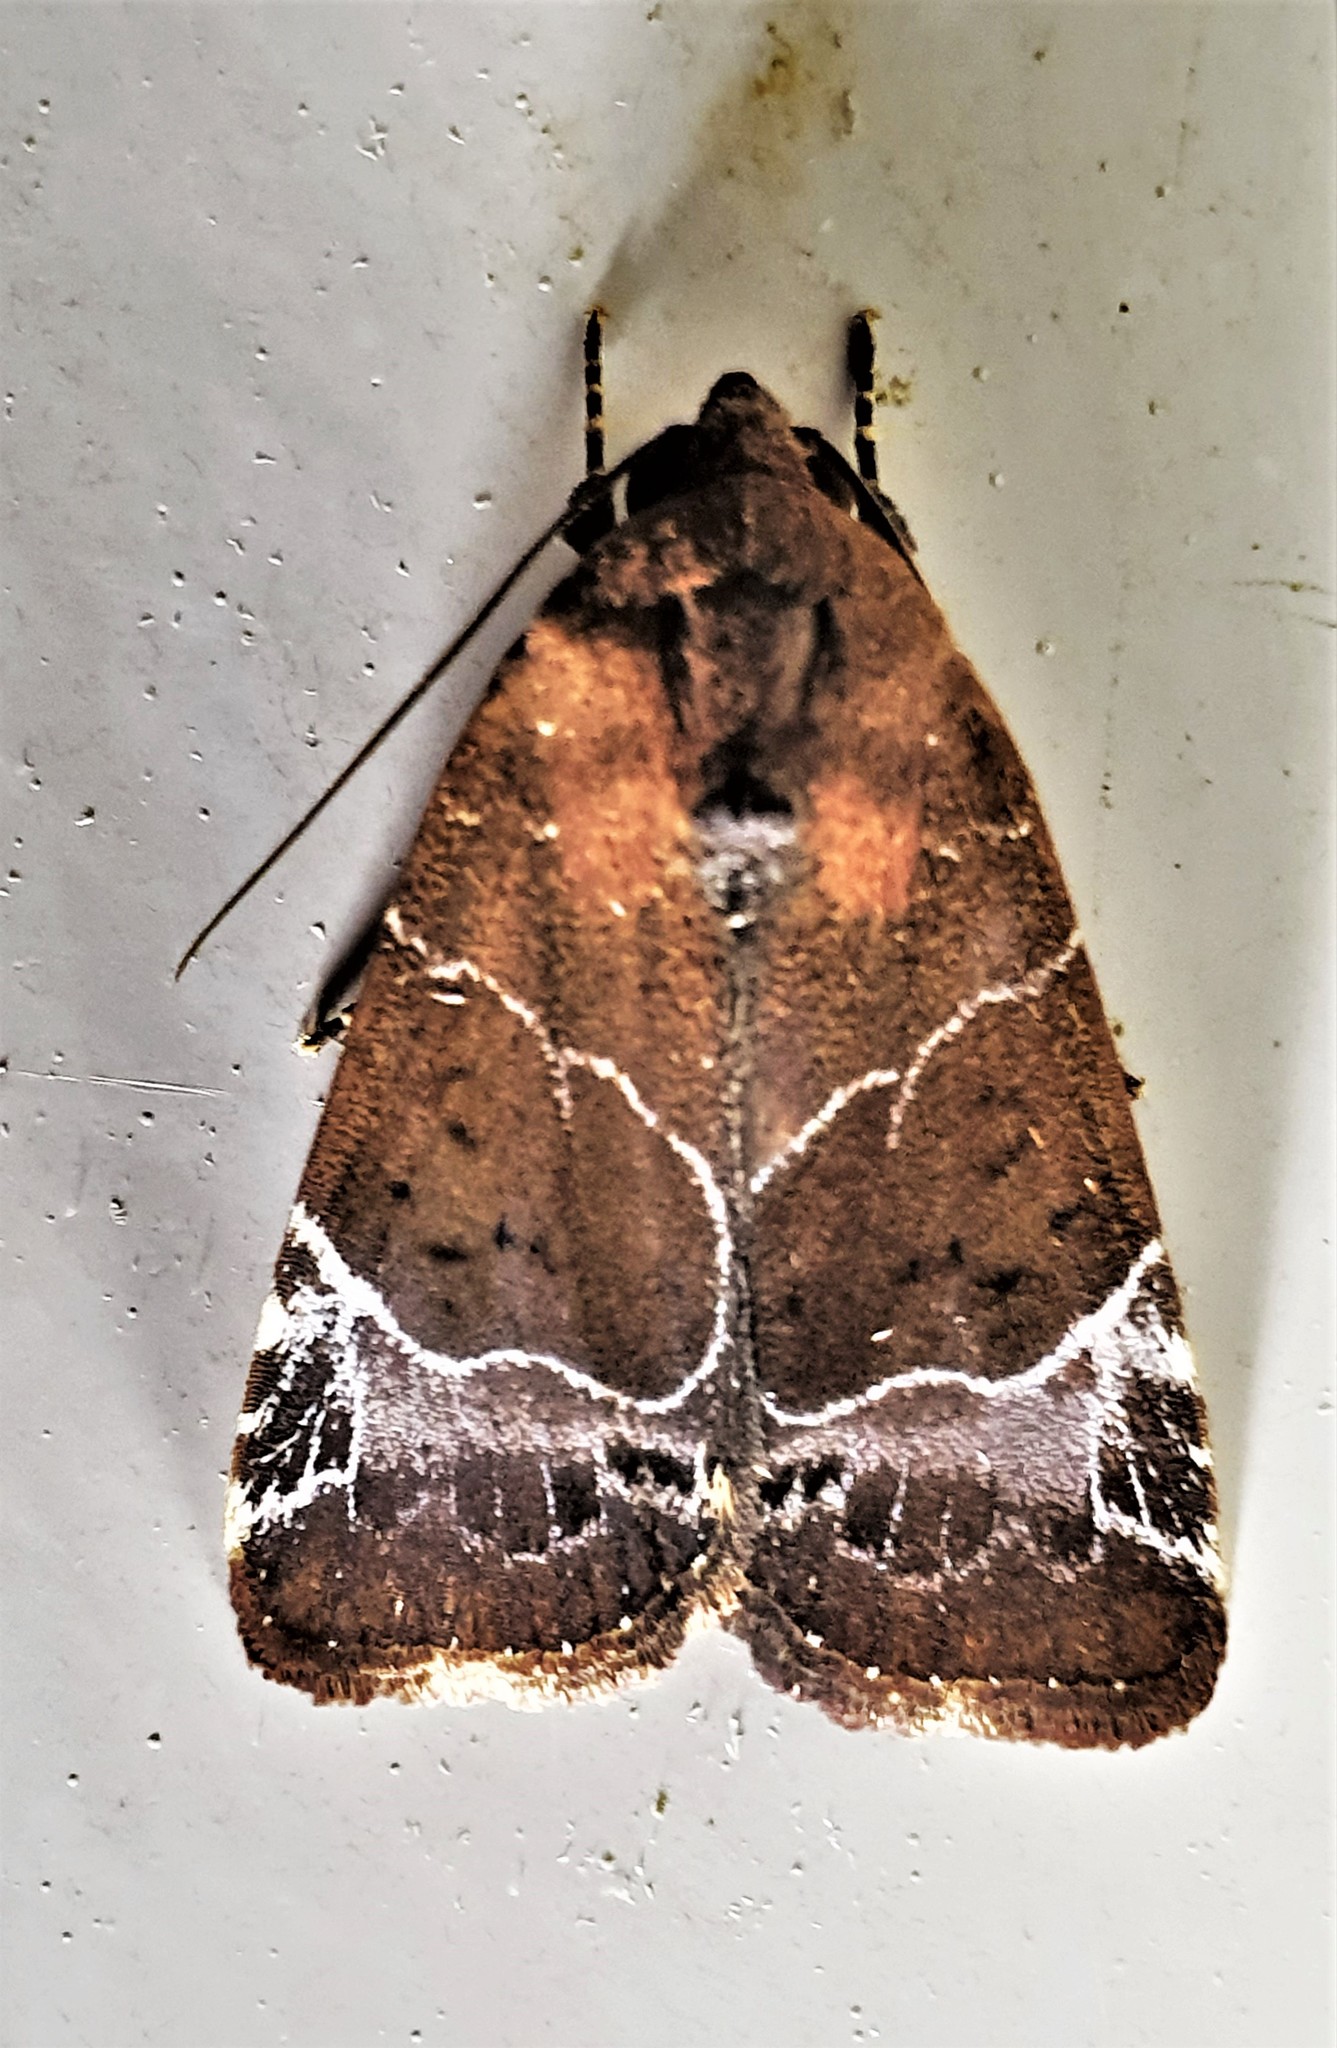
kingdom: Animalia
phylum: Arthropoda
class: Insecta
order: Lepidoptera
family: Noctuidae
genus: Hampsonodes
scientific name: Hampsonodes mastoides
